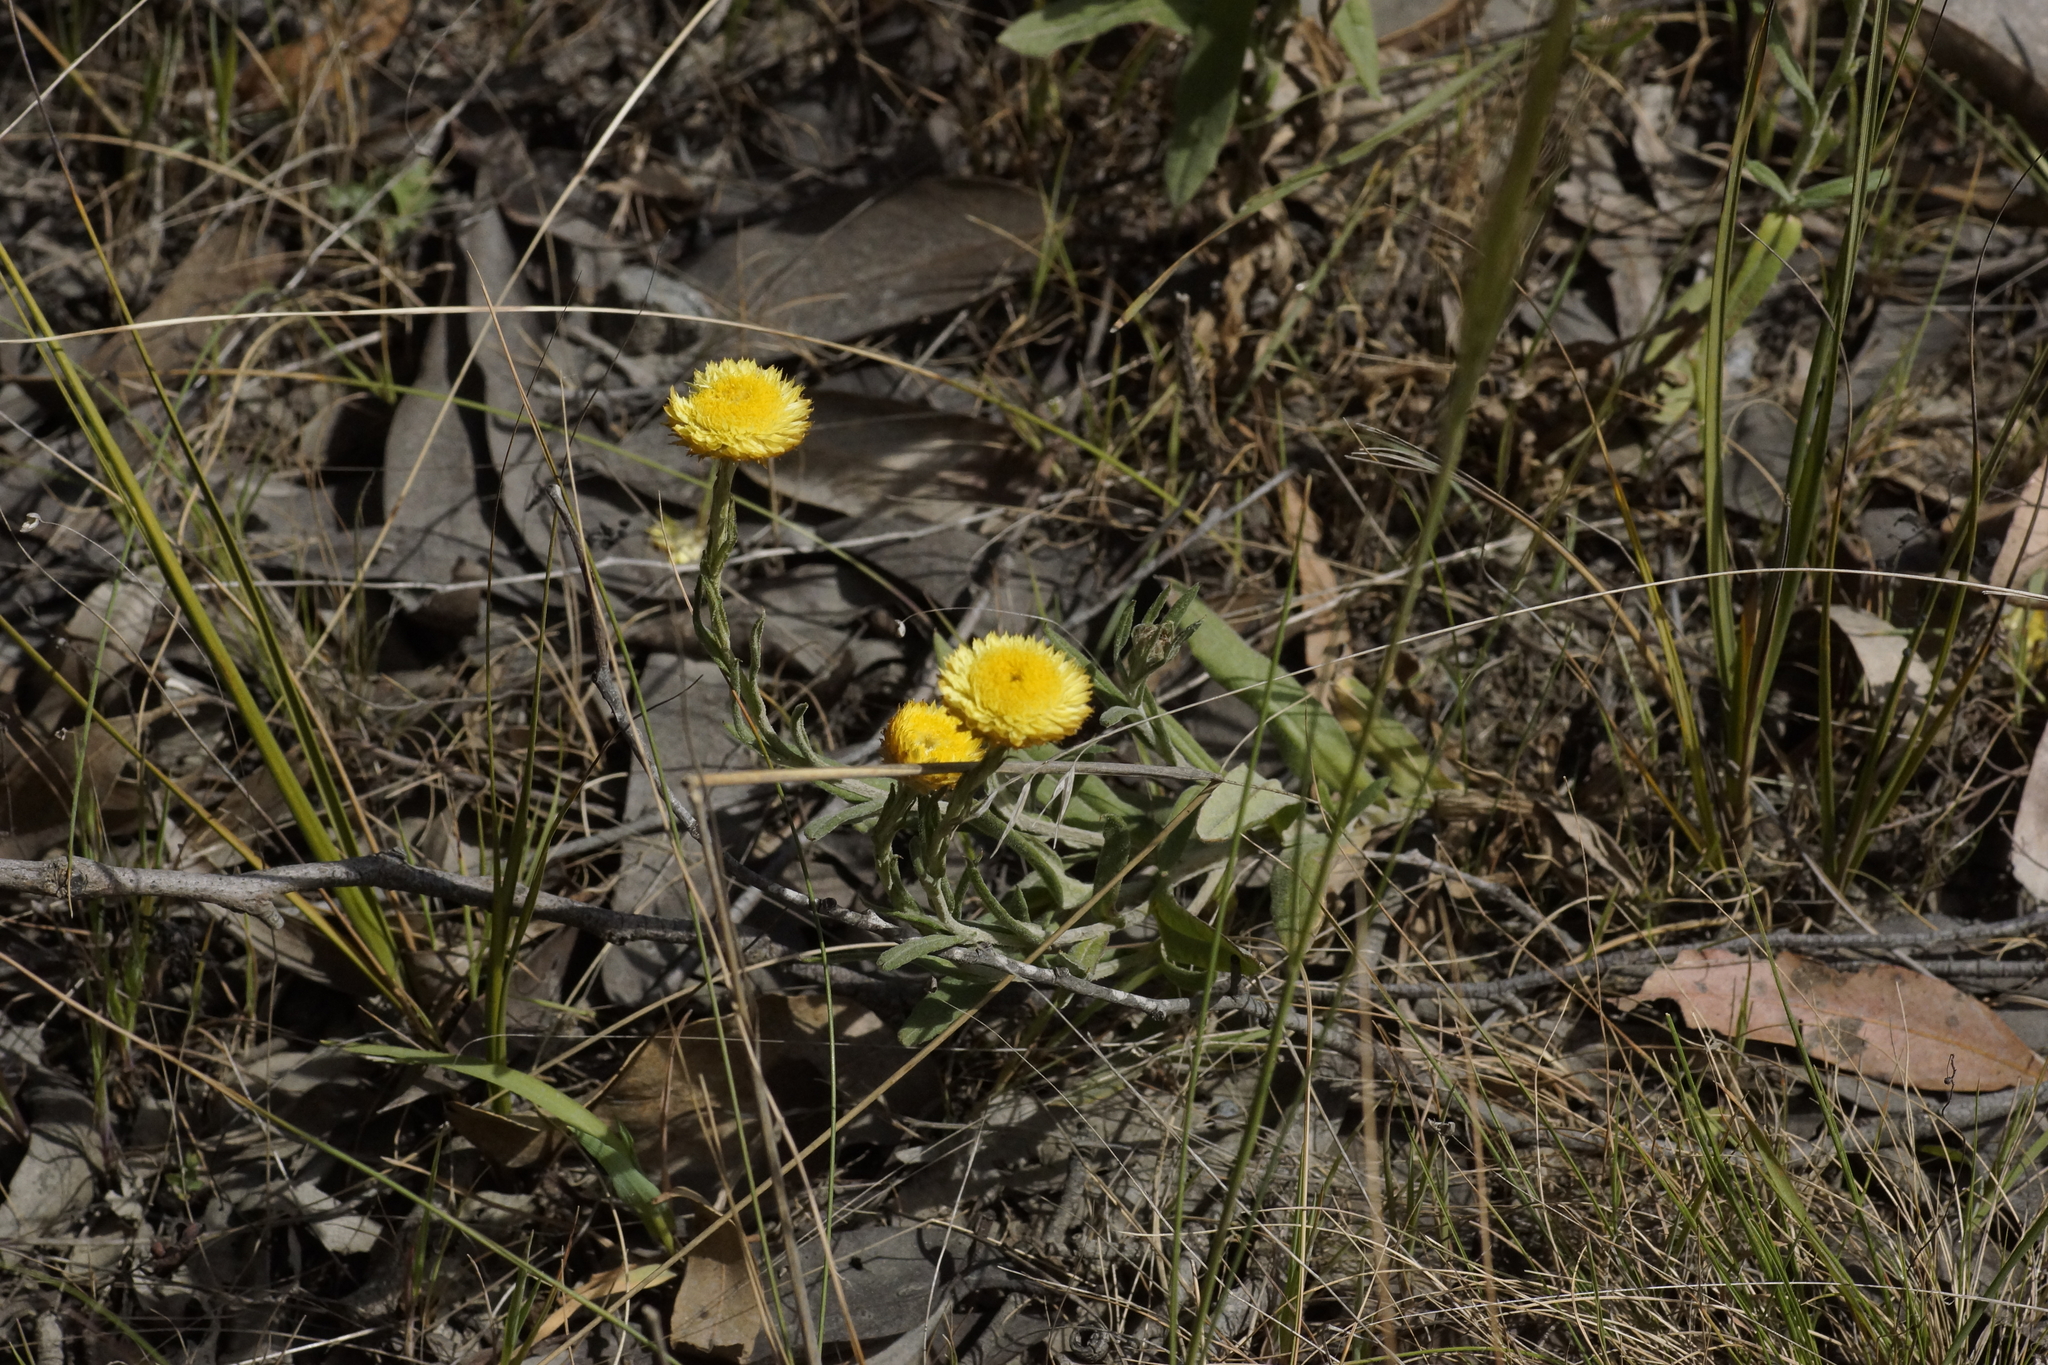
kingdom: Plantae
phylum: Tracheophyta
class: Magnoliopsida
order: Asterales
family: Asteraceae
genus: Coronidium
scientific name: Coronidium scorpioides
